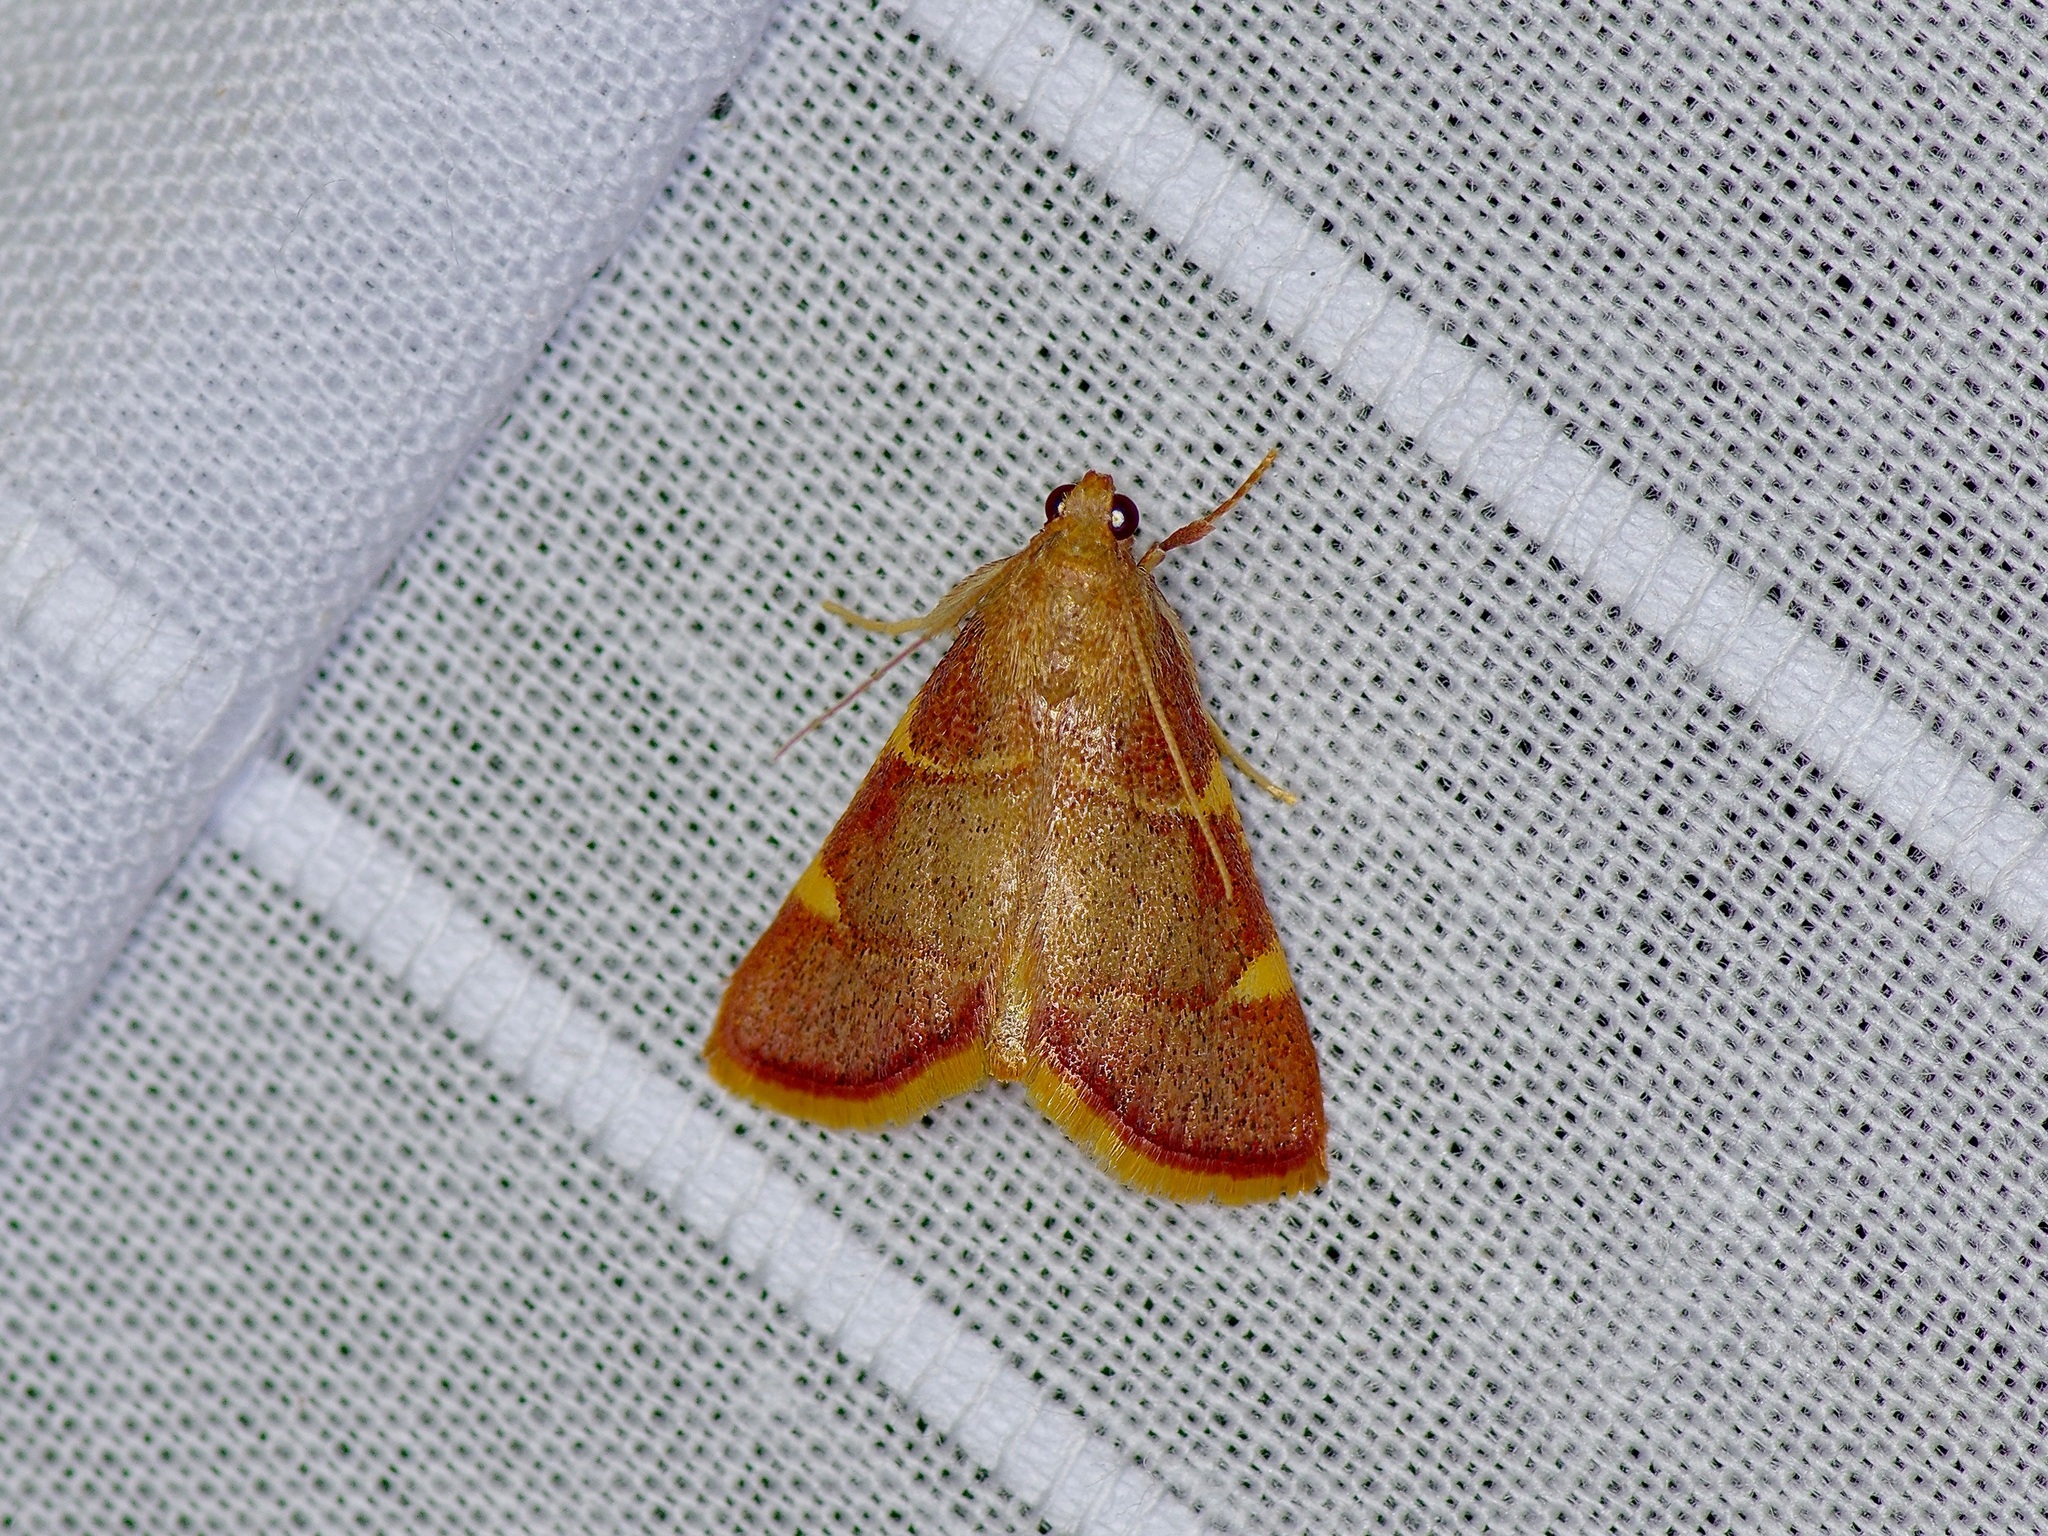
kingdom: Animalia
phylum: Arthropoda
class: Insecta
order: Lepidoptera
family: Pyralidae
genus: Hypsopygia
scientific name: Hypsopygia olinalis
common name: Yellow-fringed dolichomia moth
